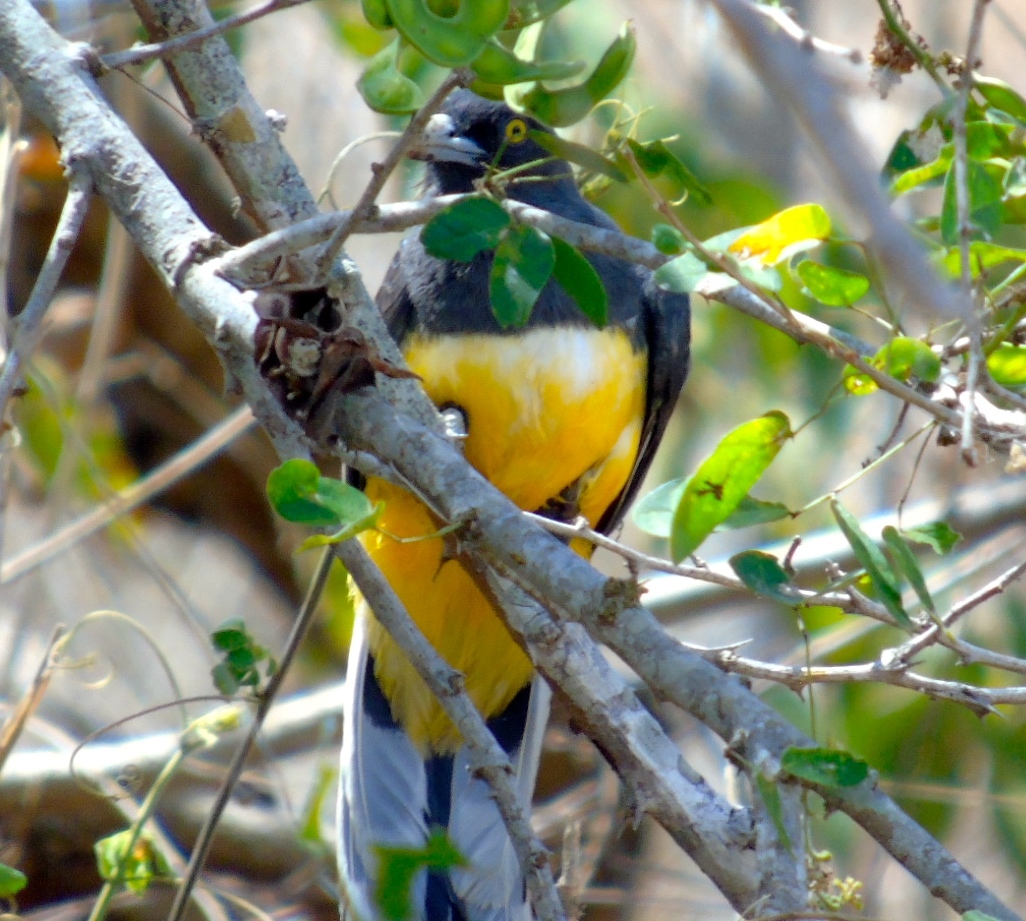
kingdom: Animalia
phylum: Chordata
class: Aves
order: Trogoniformes
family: Trogonidae
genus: Trogon
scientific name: Trogon citreolus
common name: Citreoline trogon
